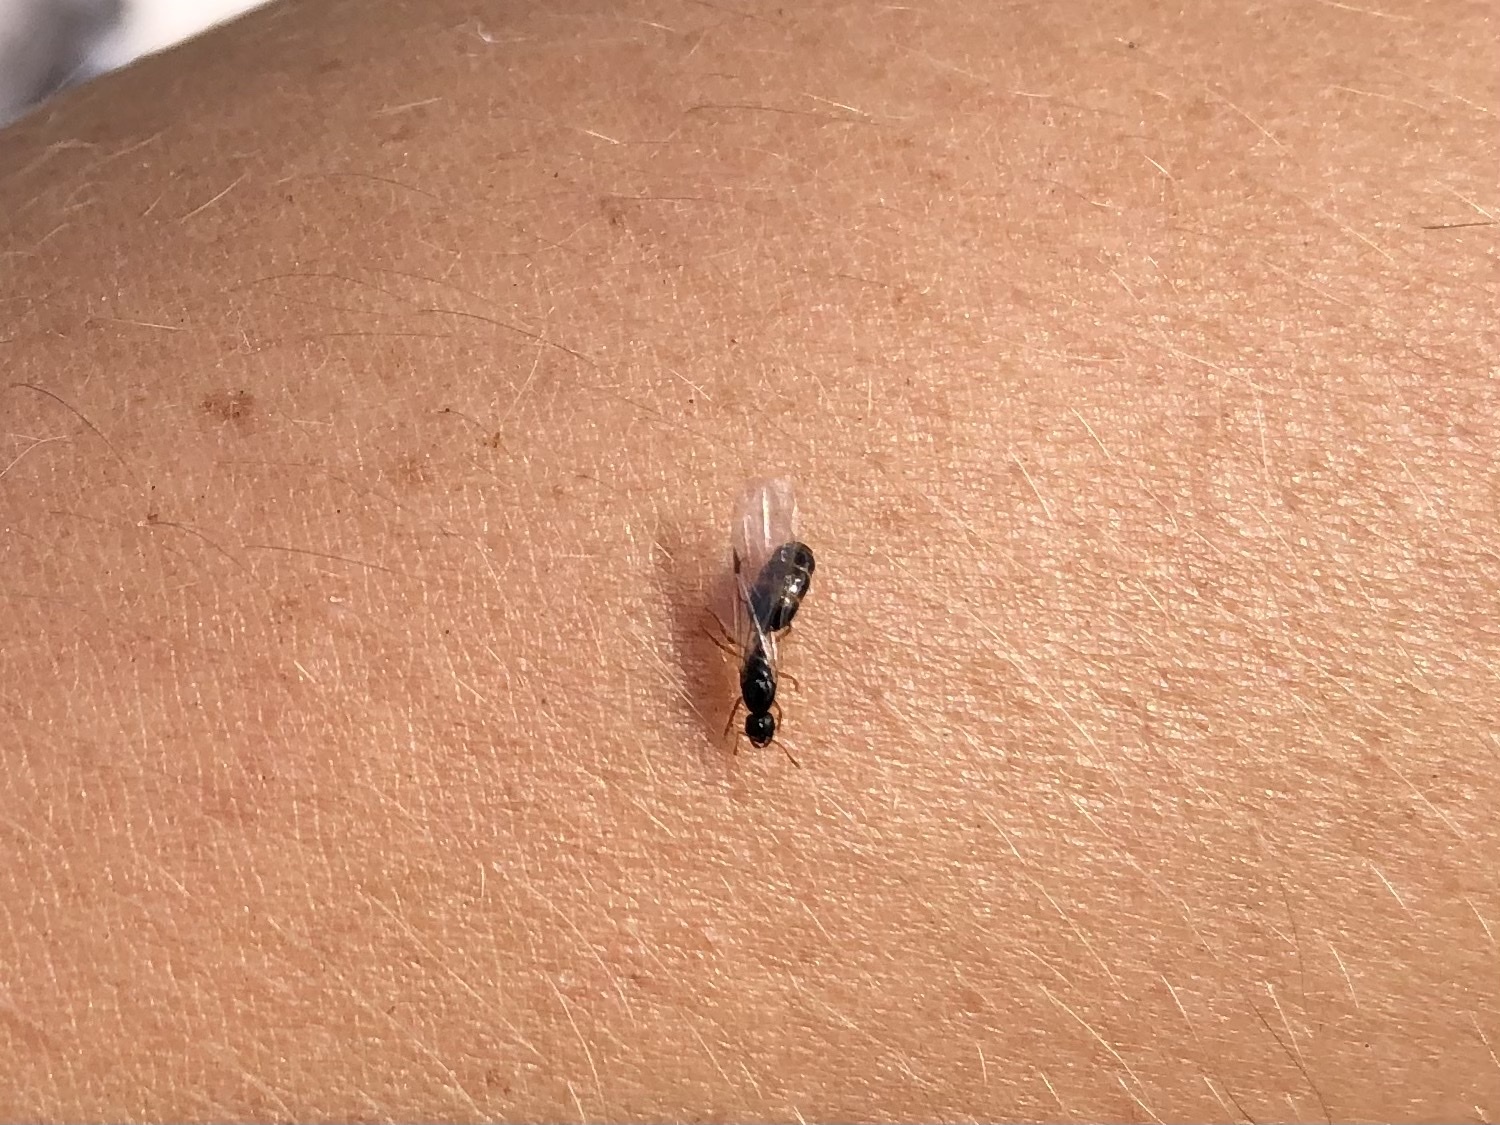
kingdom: Animalia
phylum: Arthropoda
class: Insecta
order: Hymenoptera
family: Formicidae
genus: Solenopsis
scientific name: Solenopsis fugax
